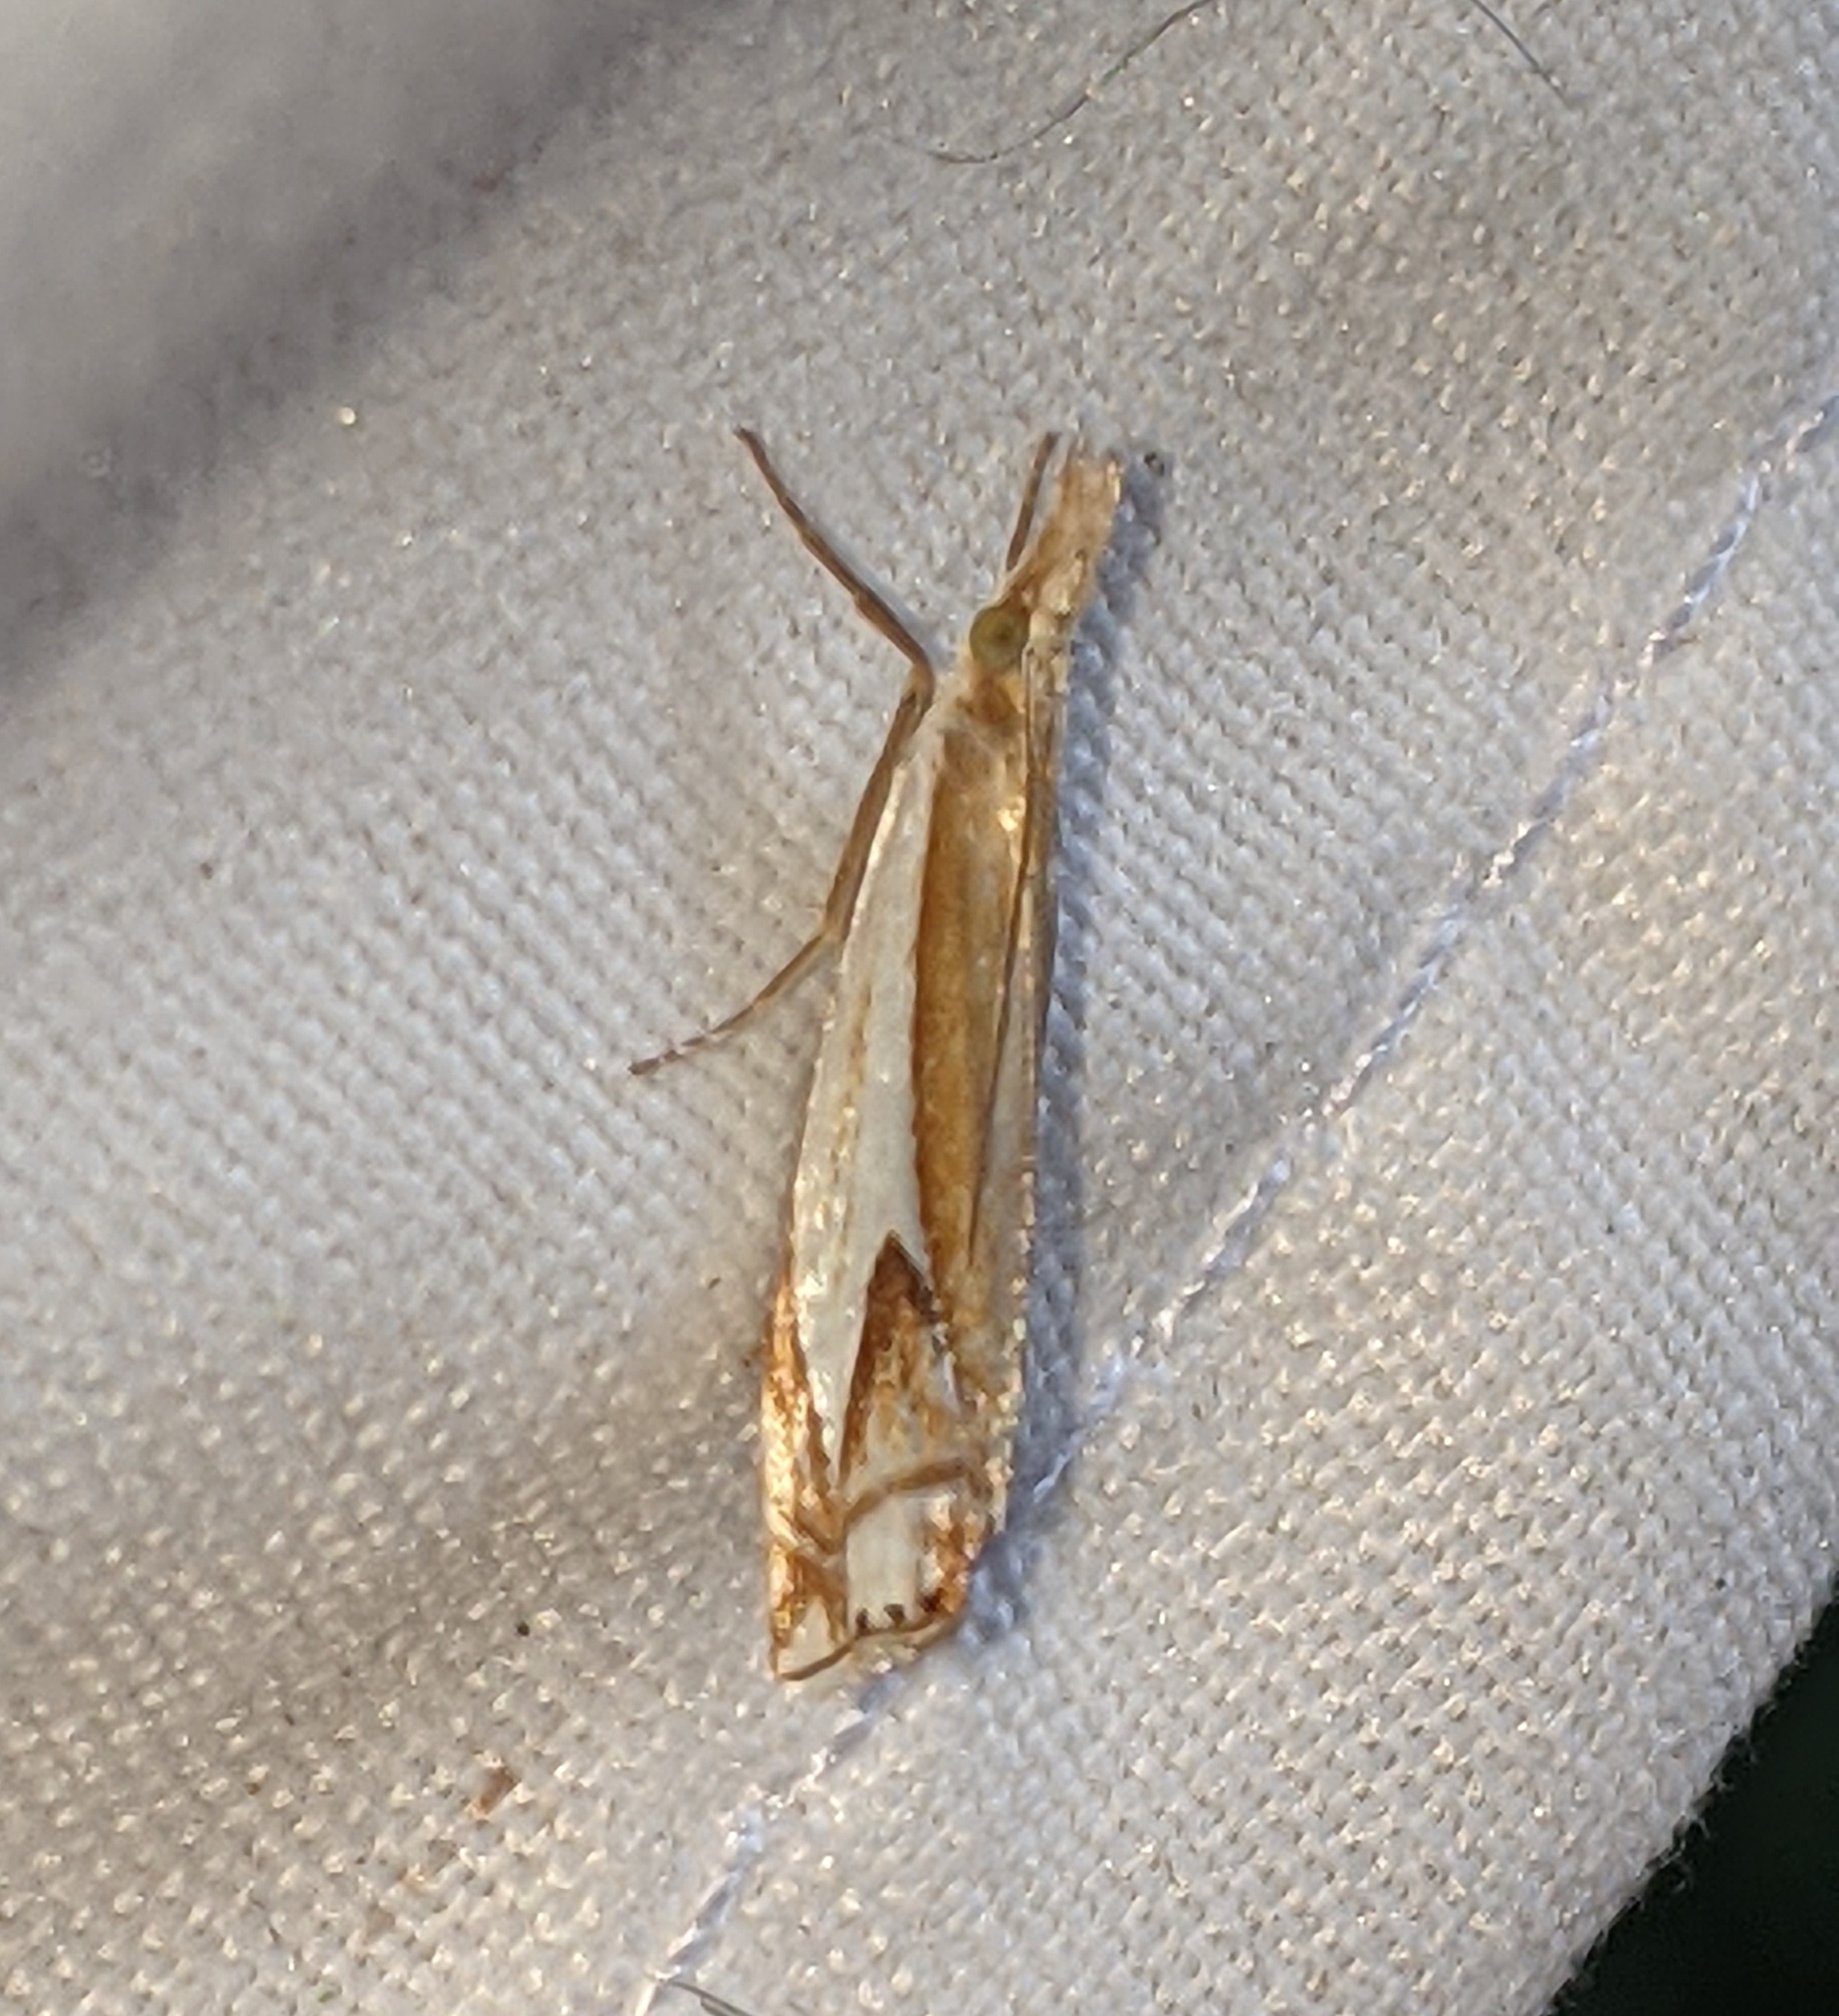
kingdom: Animalia
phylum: Arthropoda
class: Insecta
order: Lepidoptera
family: Crambidae
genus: Crambus
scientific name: Crambus bidens
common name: Forked grass-veneer
